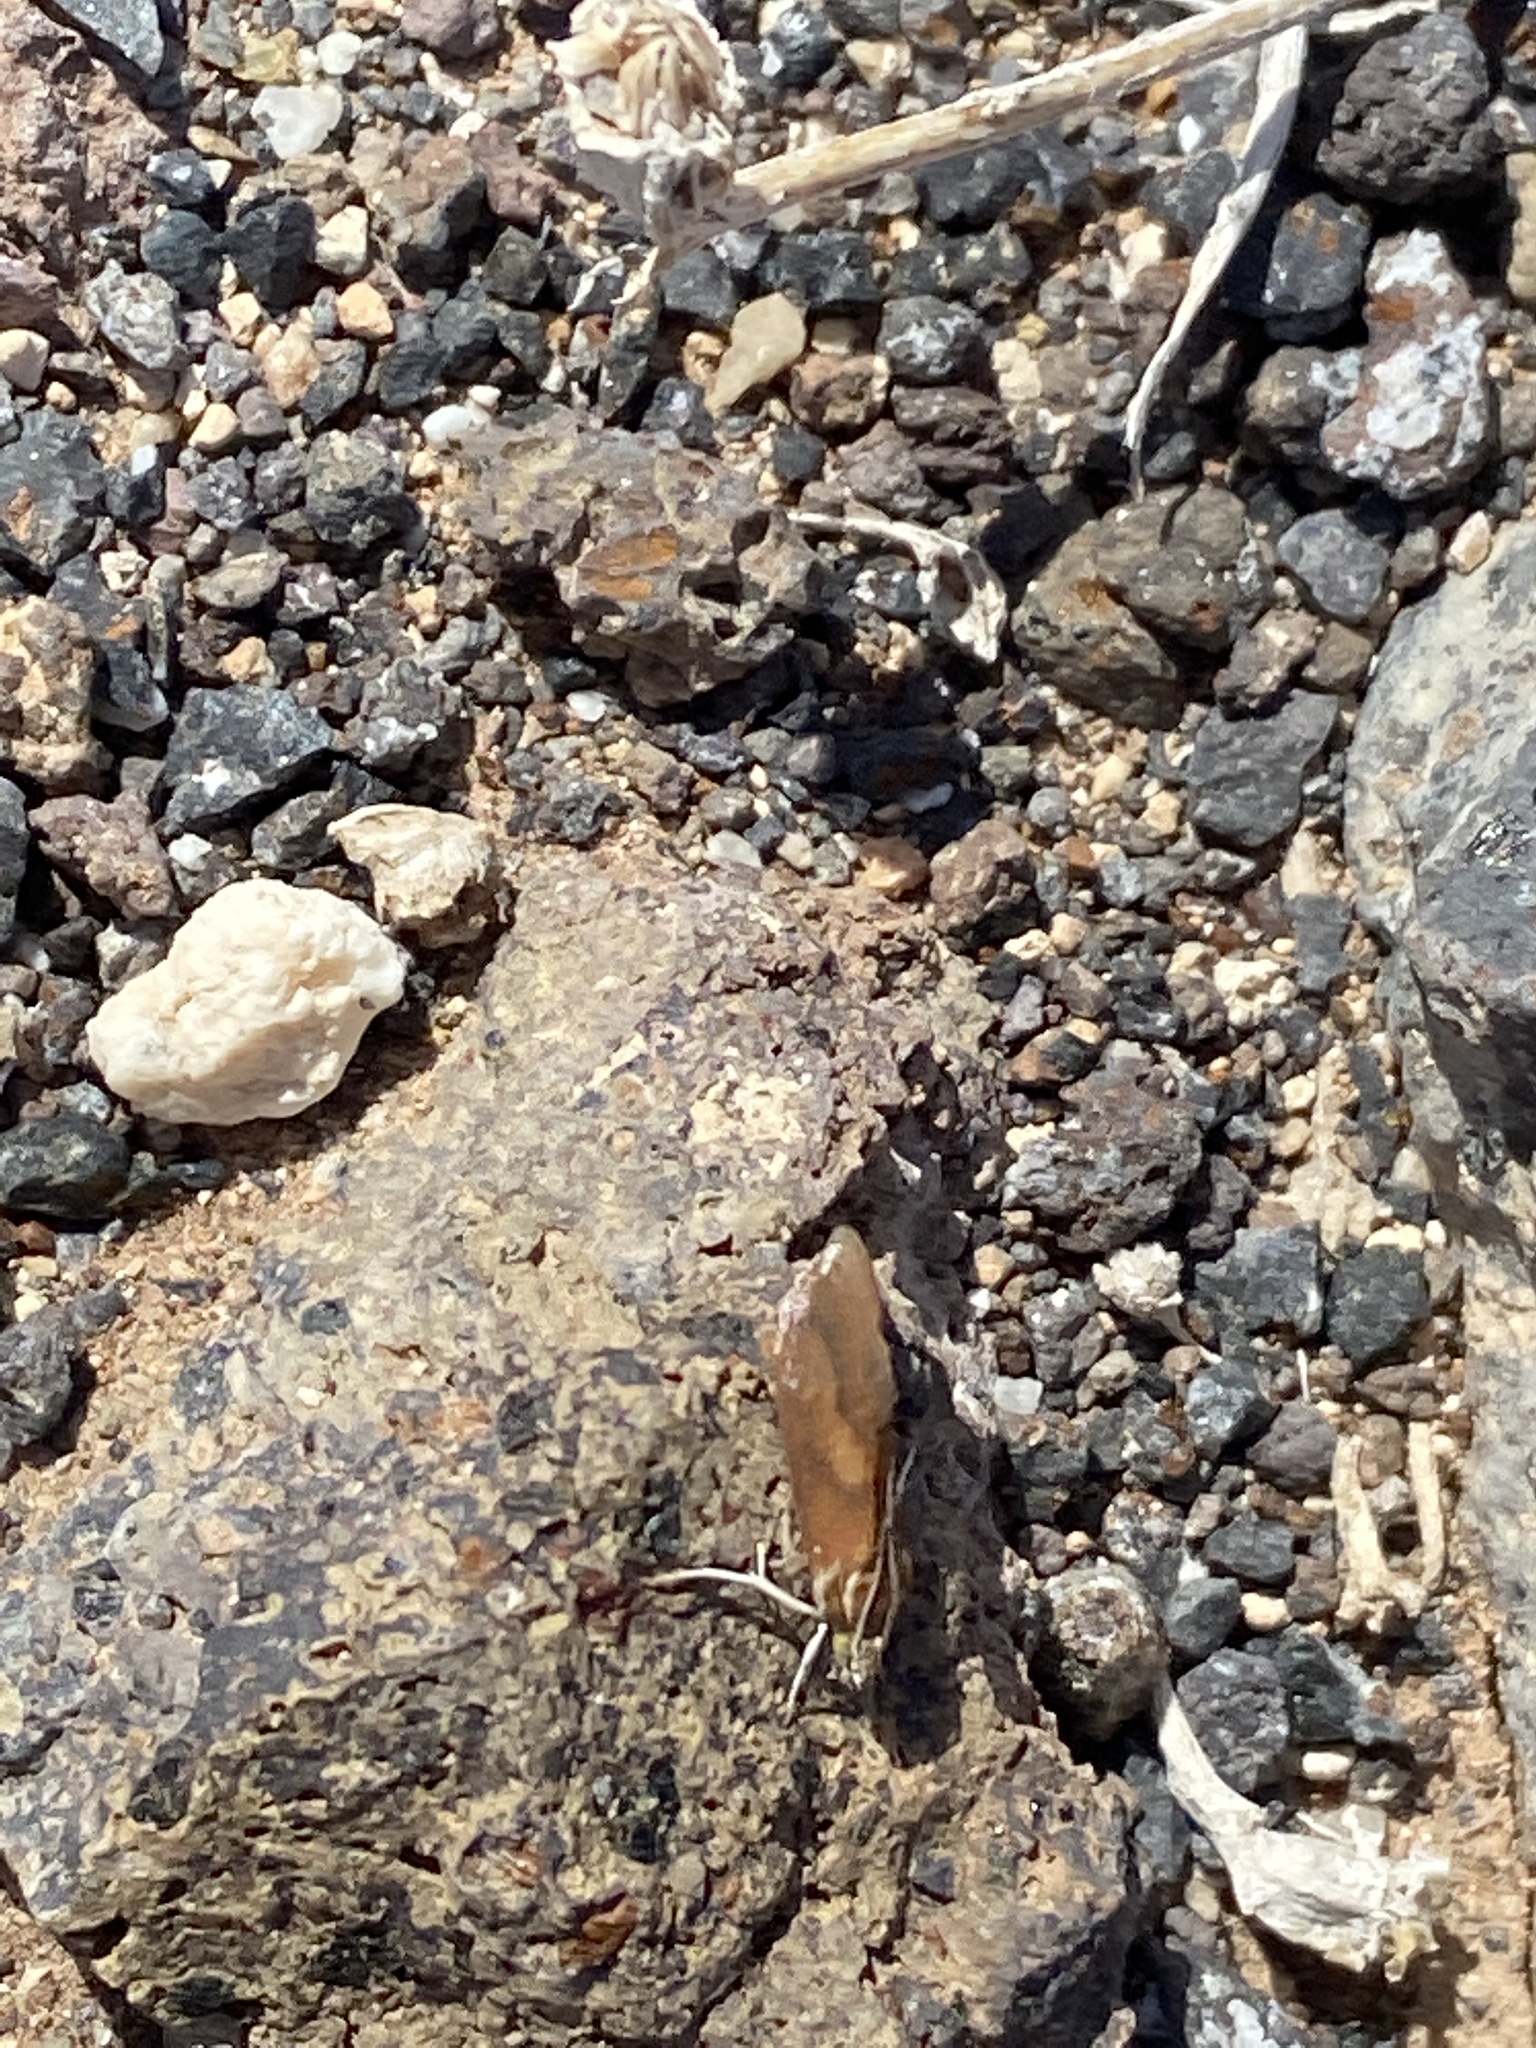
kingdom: Animalia
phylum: Arthropoda
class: Insecta
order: Lepidoptera
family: Crambidae
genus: Tegostoma
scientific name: Tegostoma Cataonia erubescens
